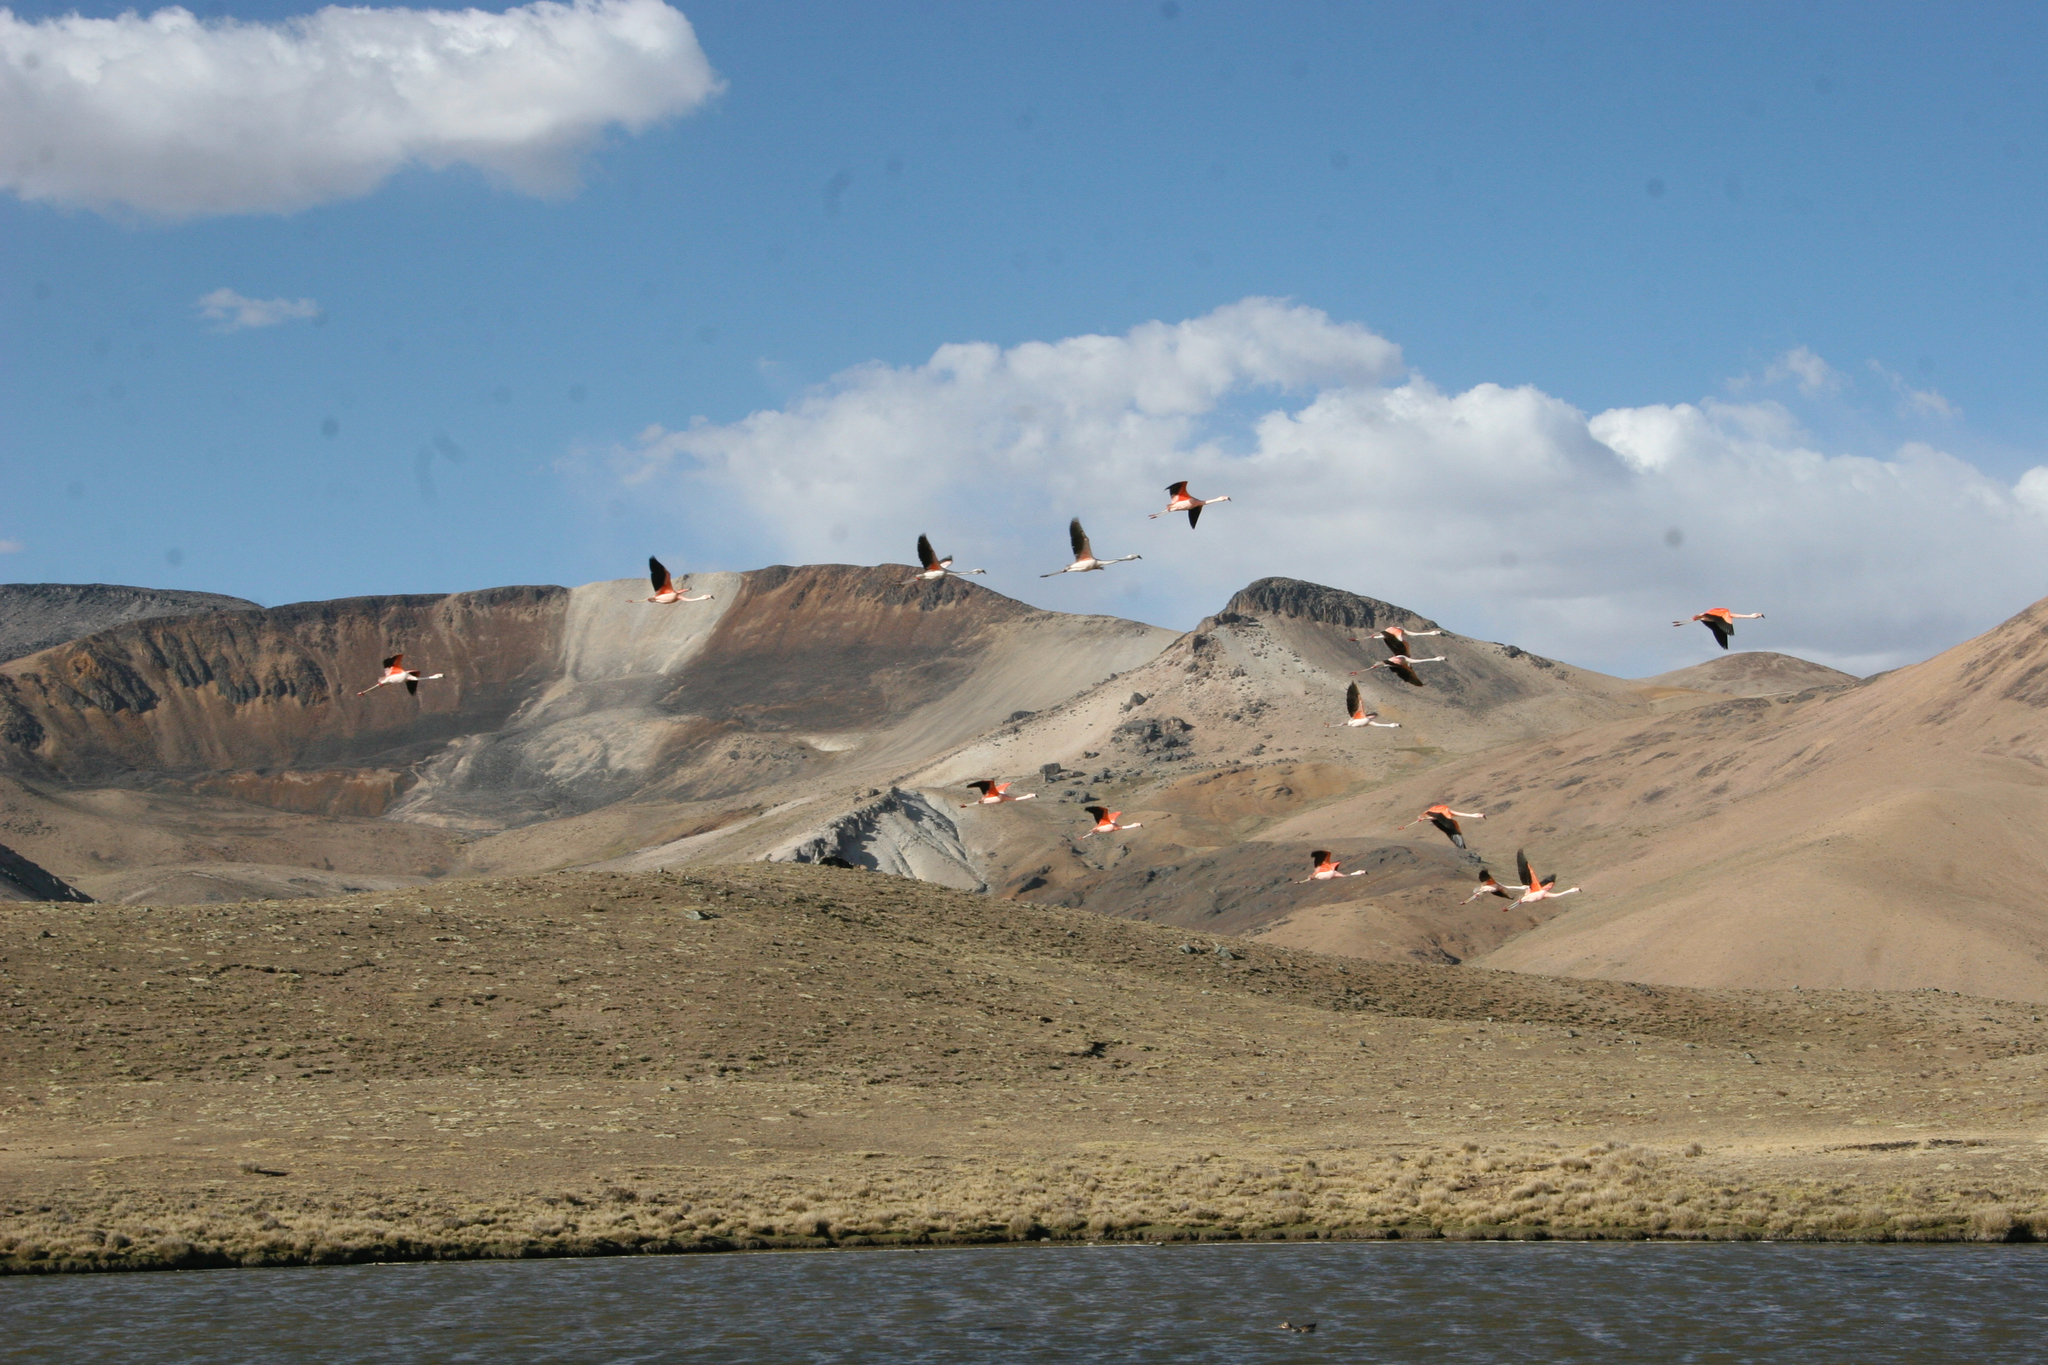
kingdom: Animalia
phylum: Chordata
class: Aves
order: Phoenicopteriformes
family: Phoenicopteridae
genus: Phoenicopterus
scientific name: Phoenicopterus chilensis
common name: Chilean flamingo
